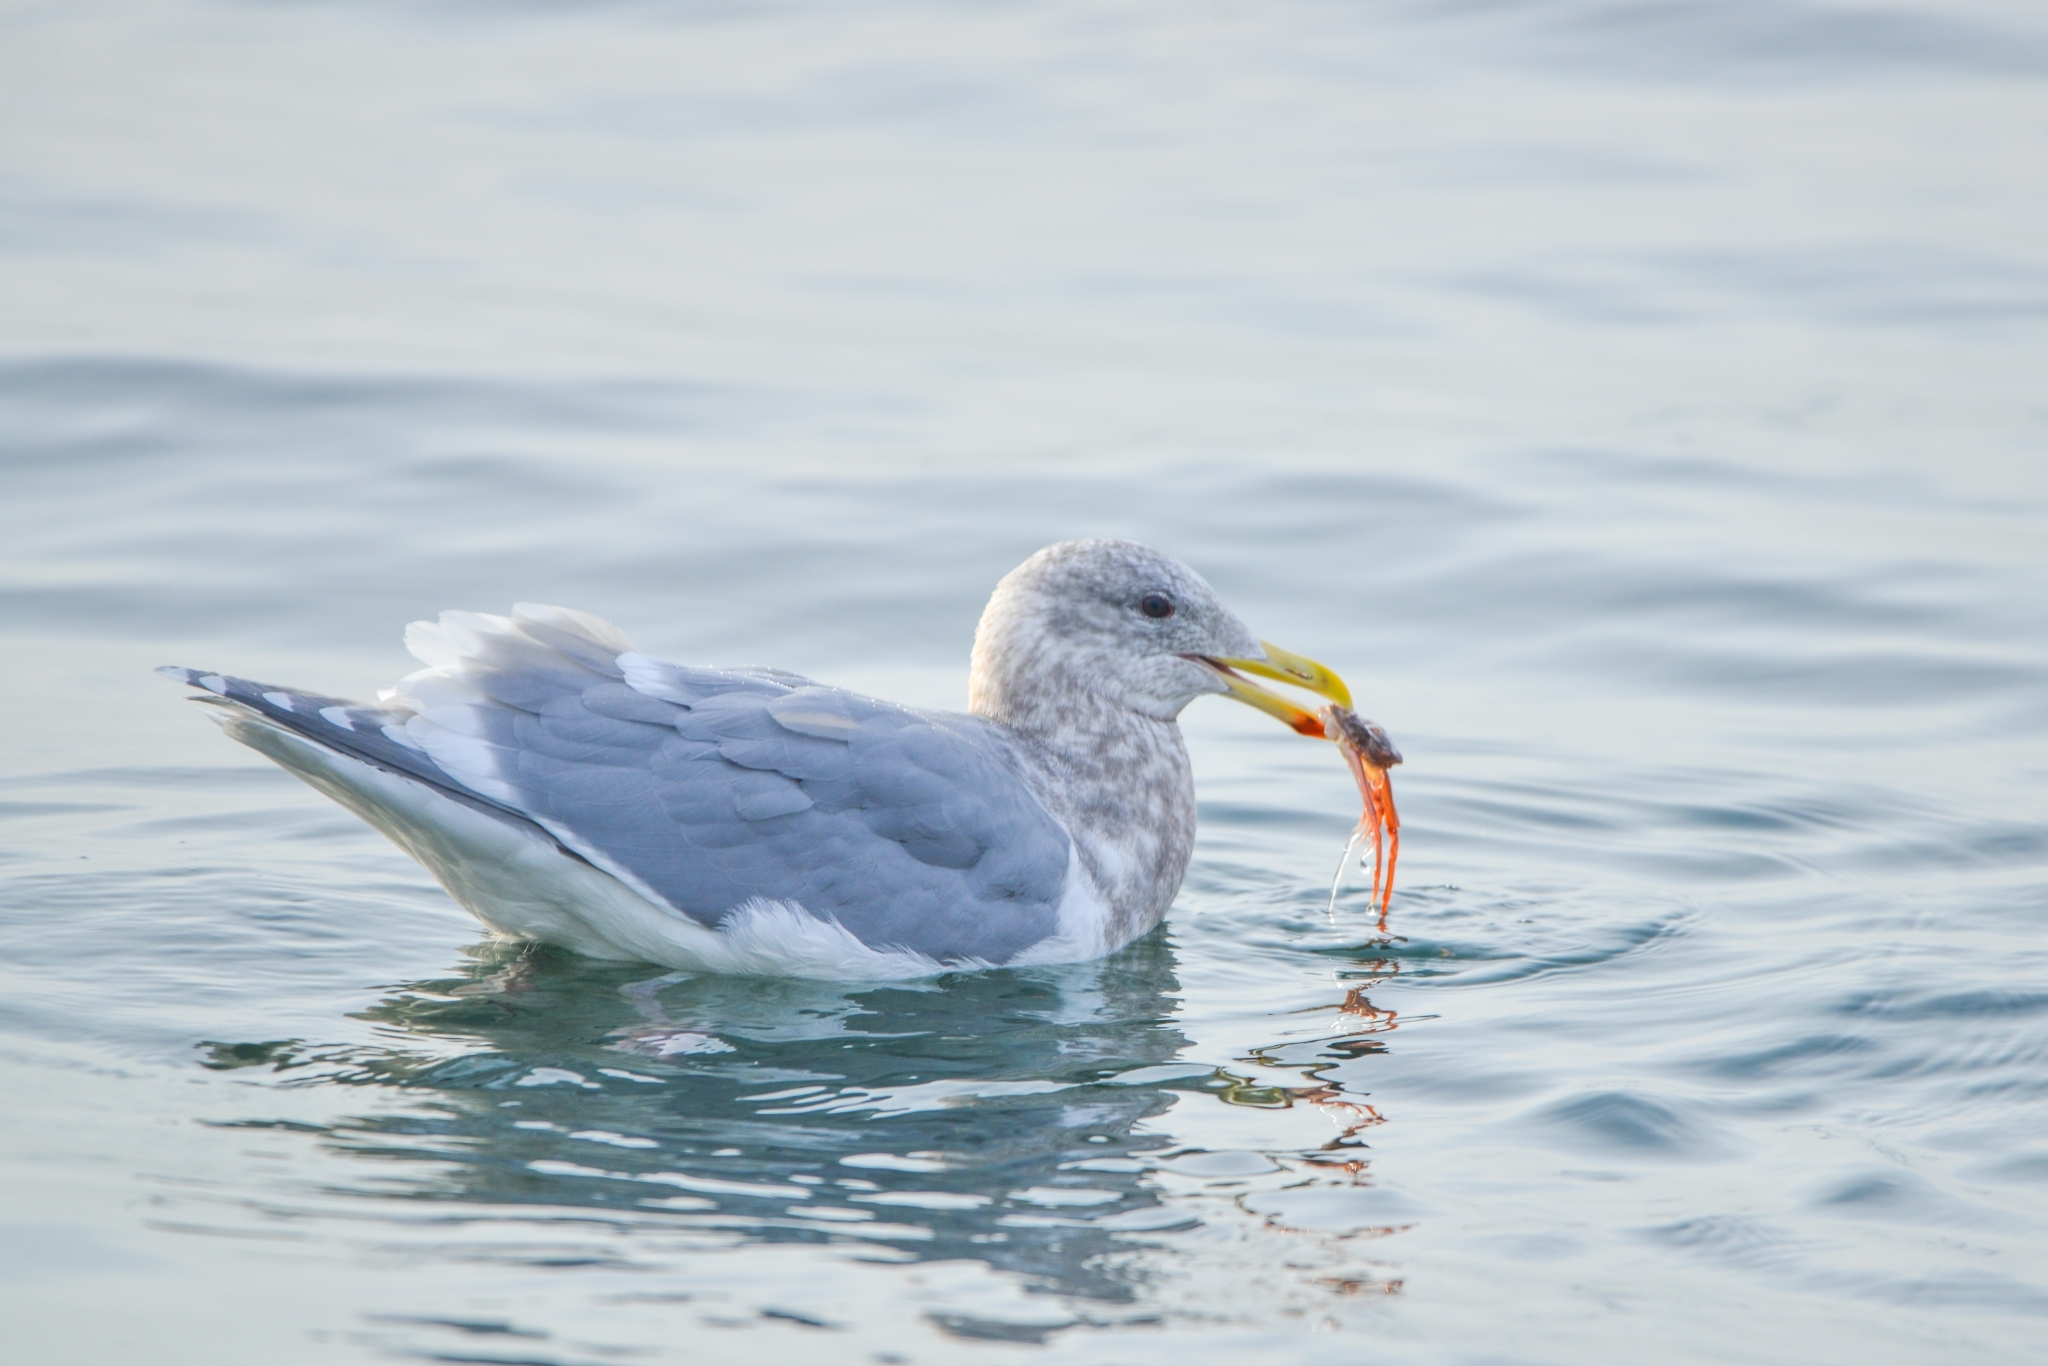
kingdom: Animalia
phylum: Chordata
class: Aves
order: Charadriiformes
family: Laridae
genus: Larus
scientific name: Larus glaucescens
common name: Glaucous-winged gull
